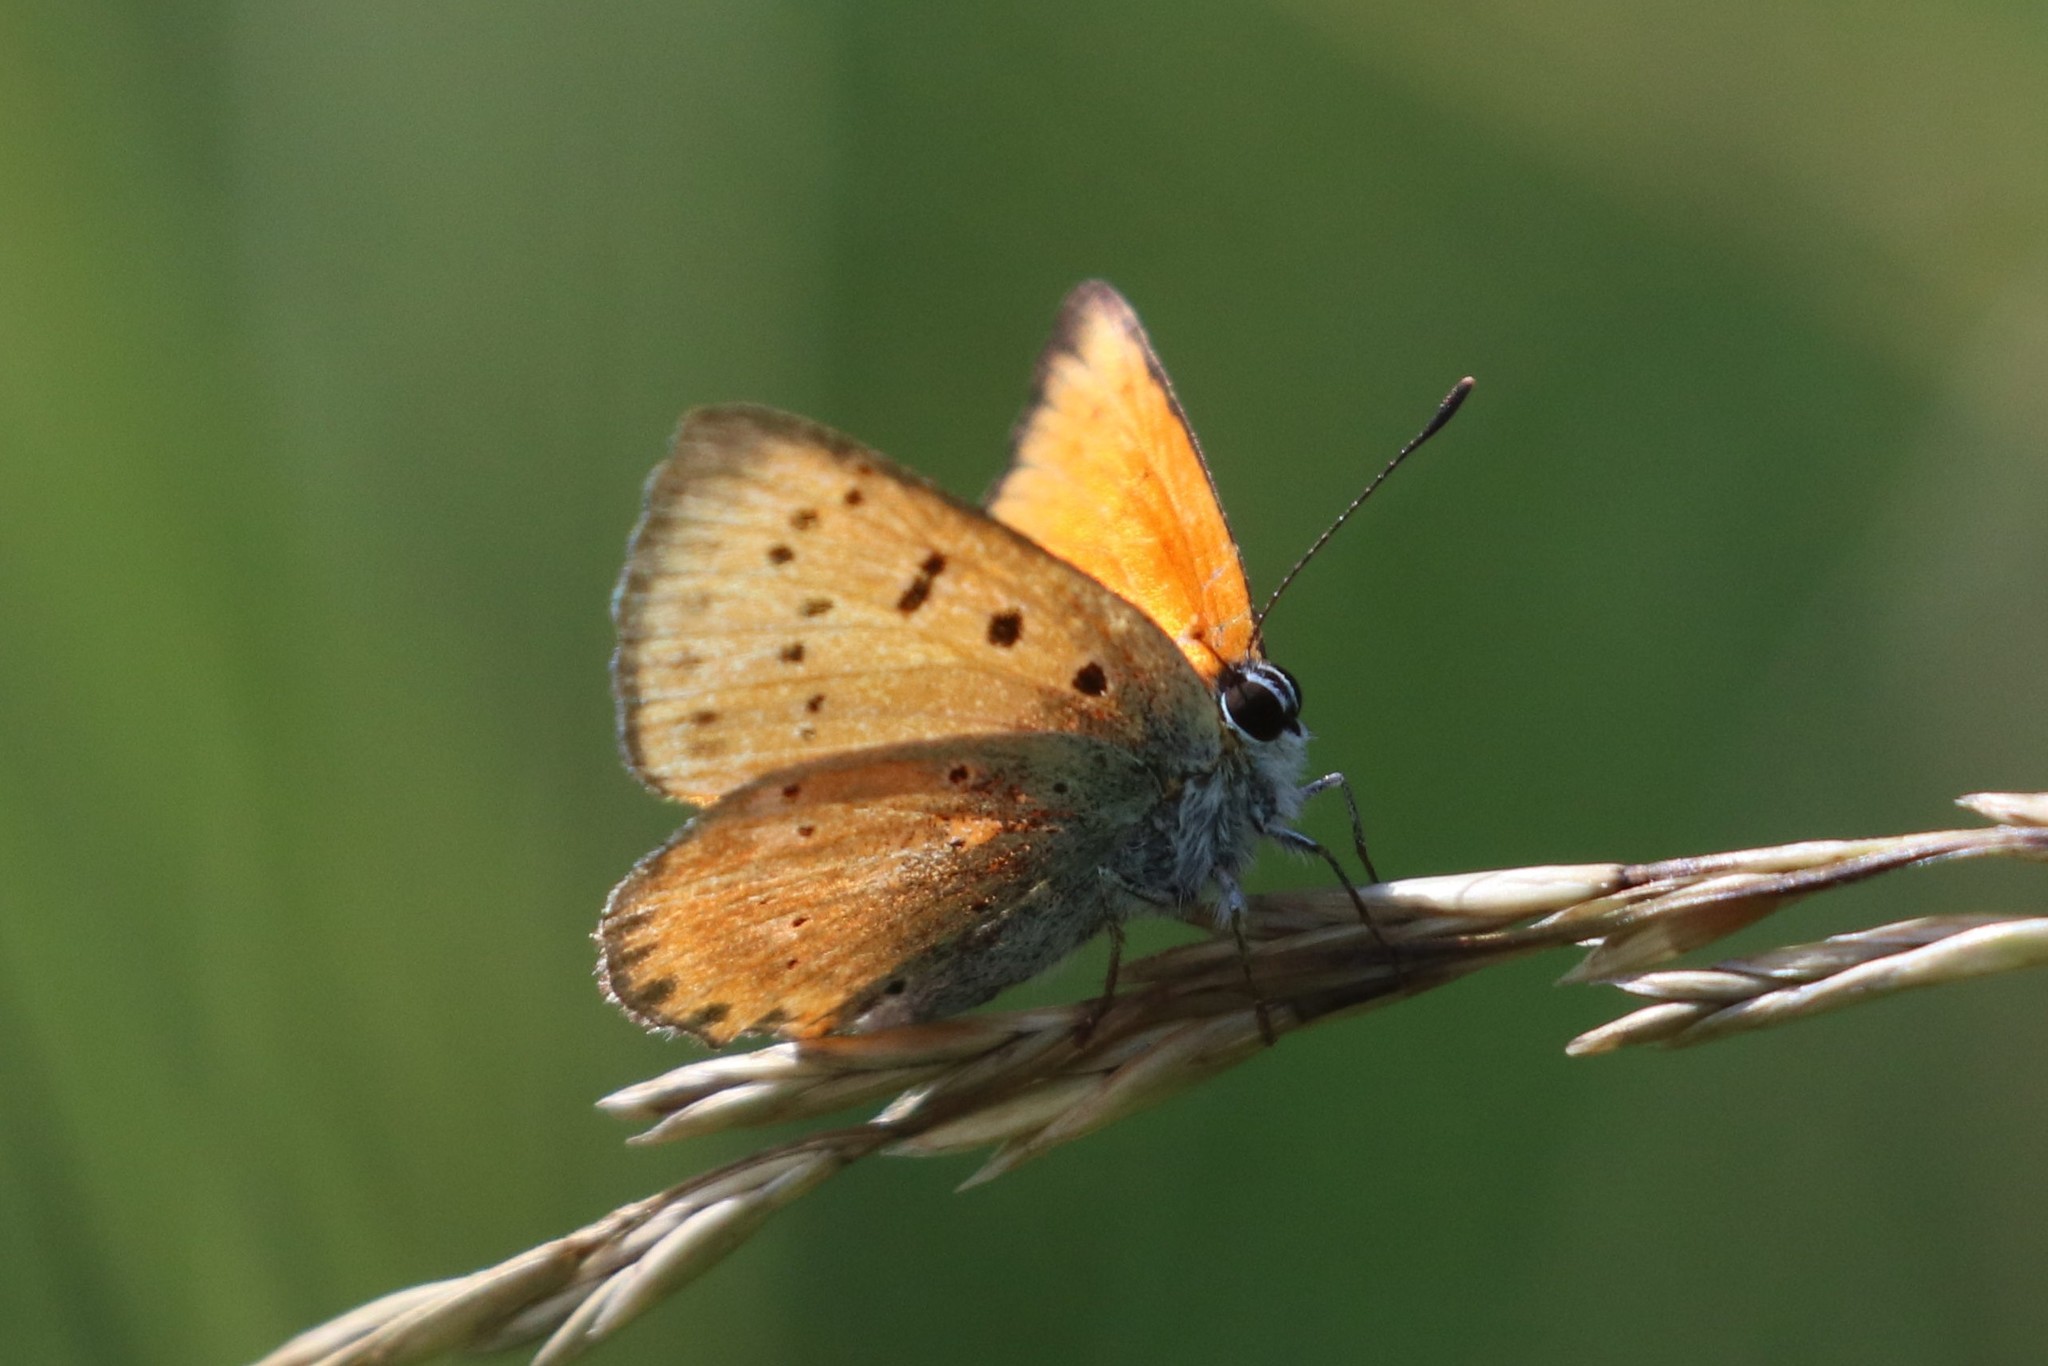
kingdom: Animalia
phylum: Arthropoda
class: Insecta
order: Lepidoptera
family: Lycaenidae
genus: Lycaena
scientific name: Lycaena virgaureae
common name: Scarce copper
